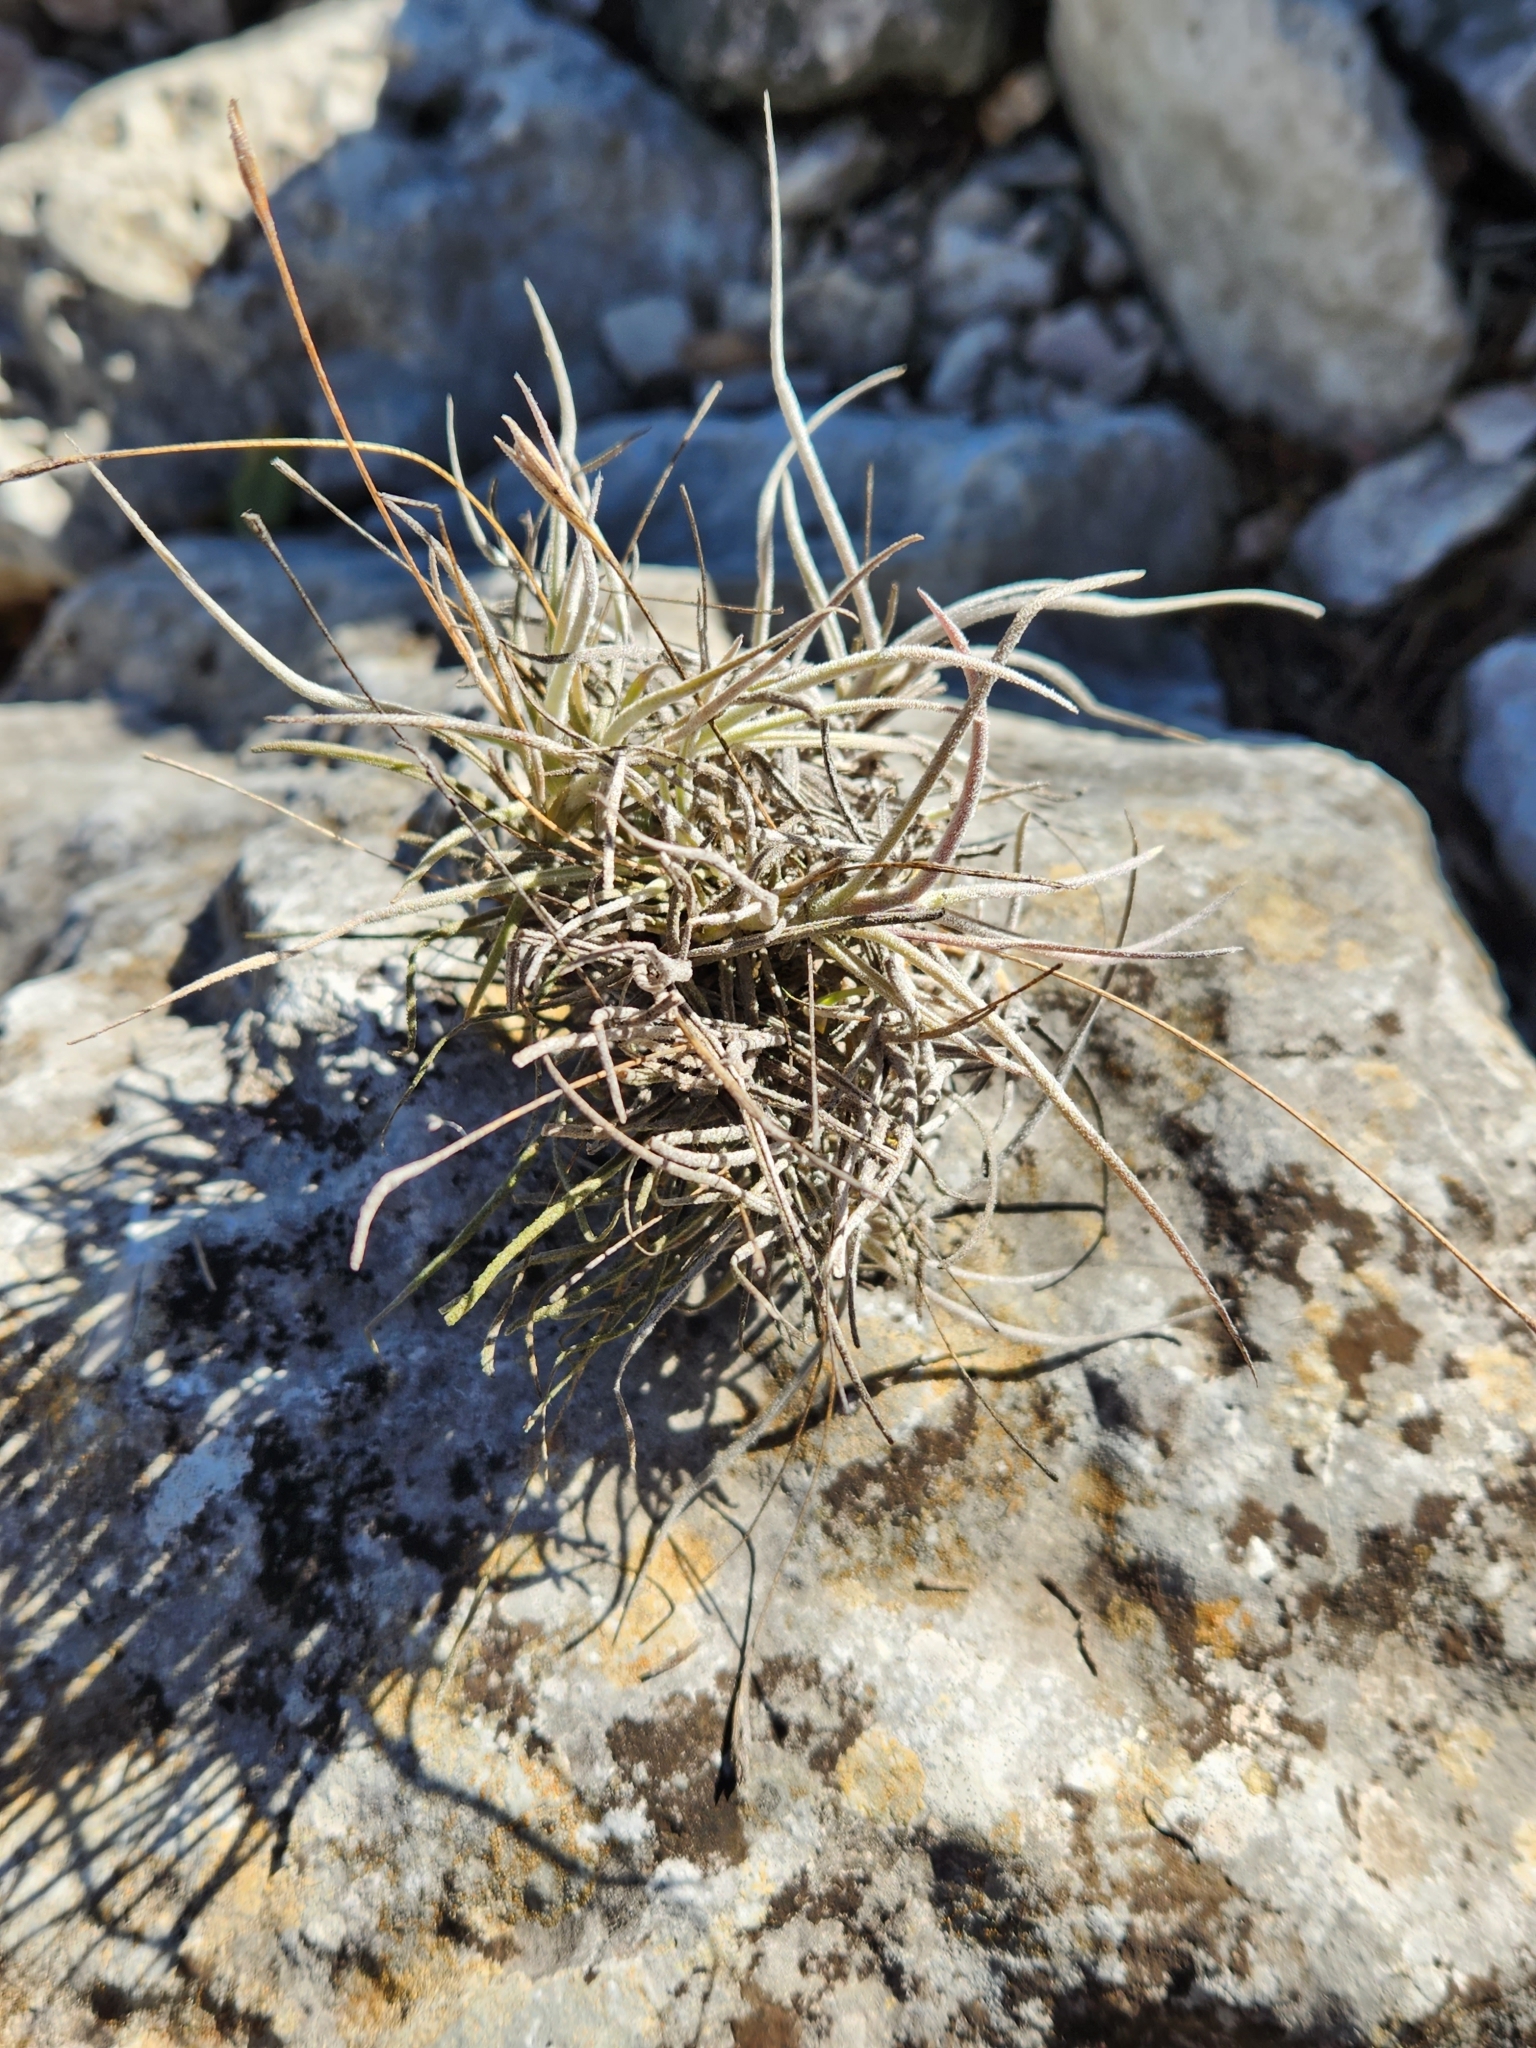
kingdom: Plantae
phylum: Tracheophyta
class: Liliopsida
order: Poales
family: Bromeliaceae
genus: Tillandsia
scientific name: Tillandsia recurvata
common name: Small ballmoss
